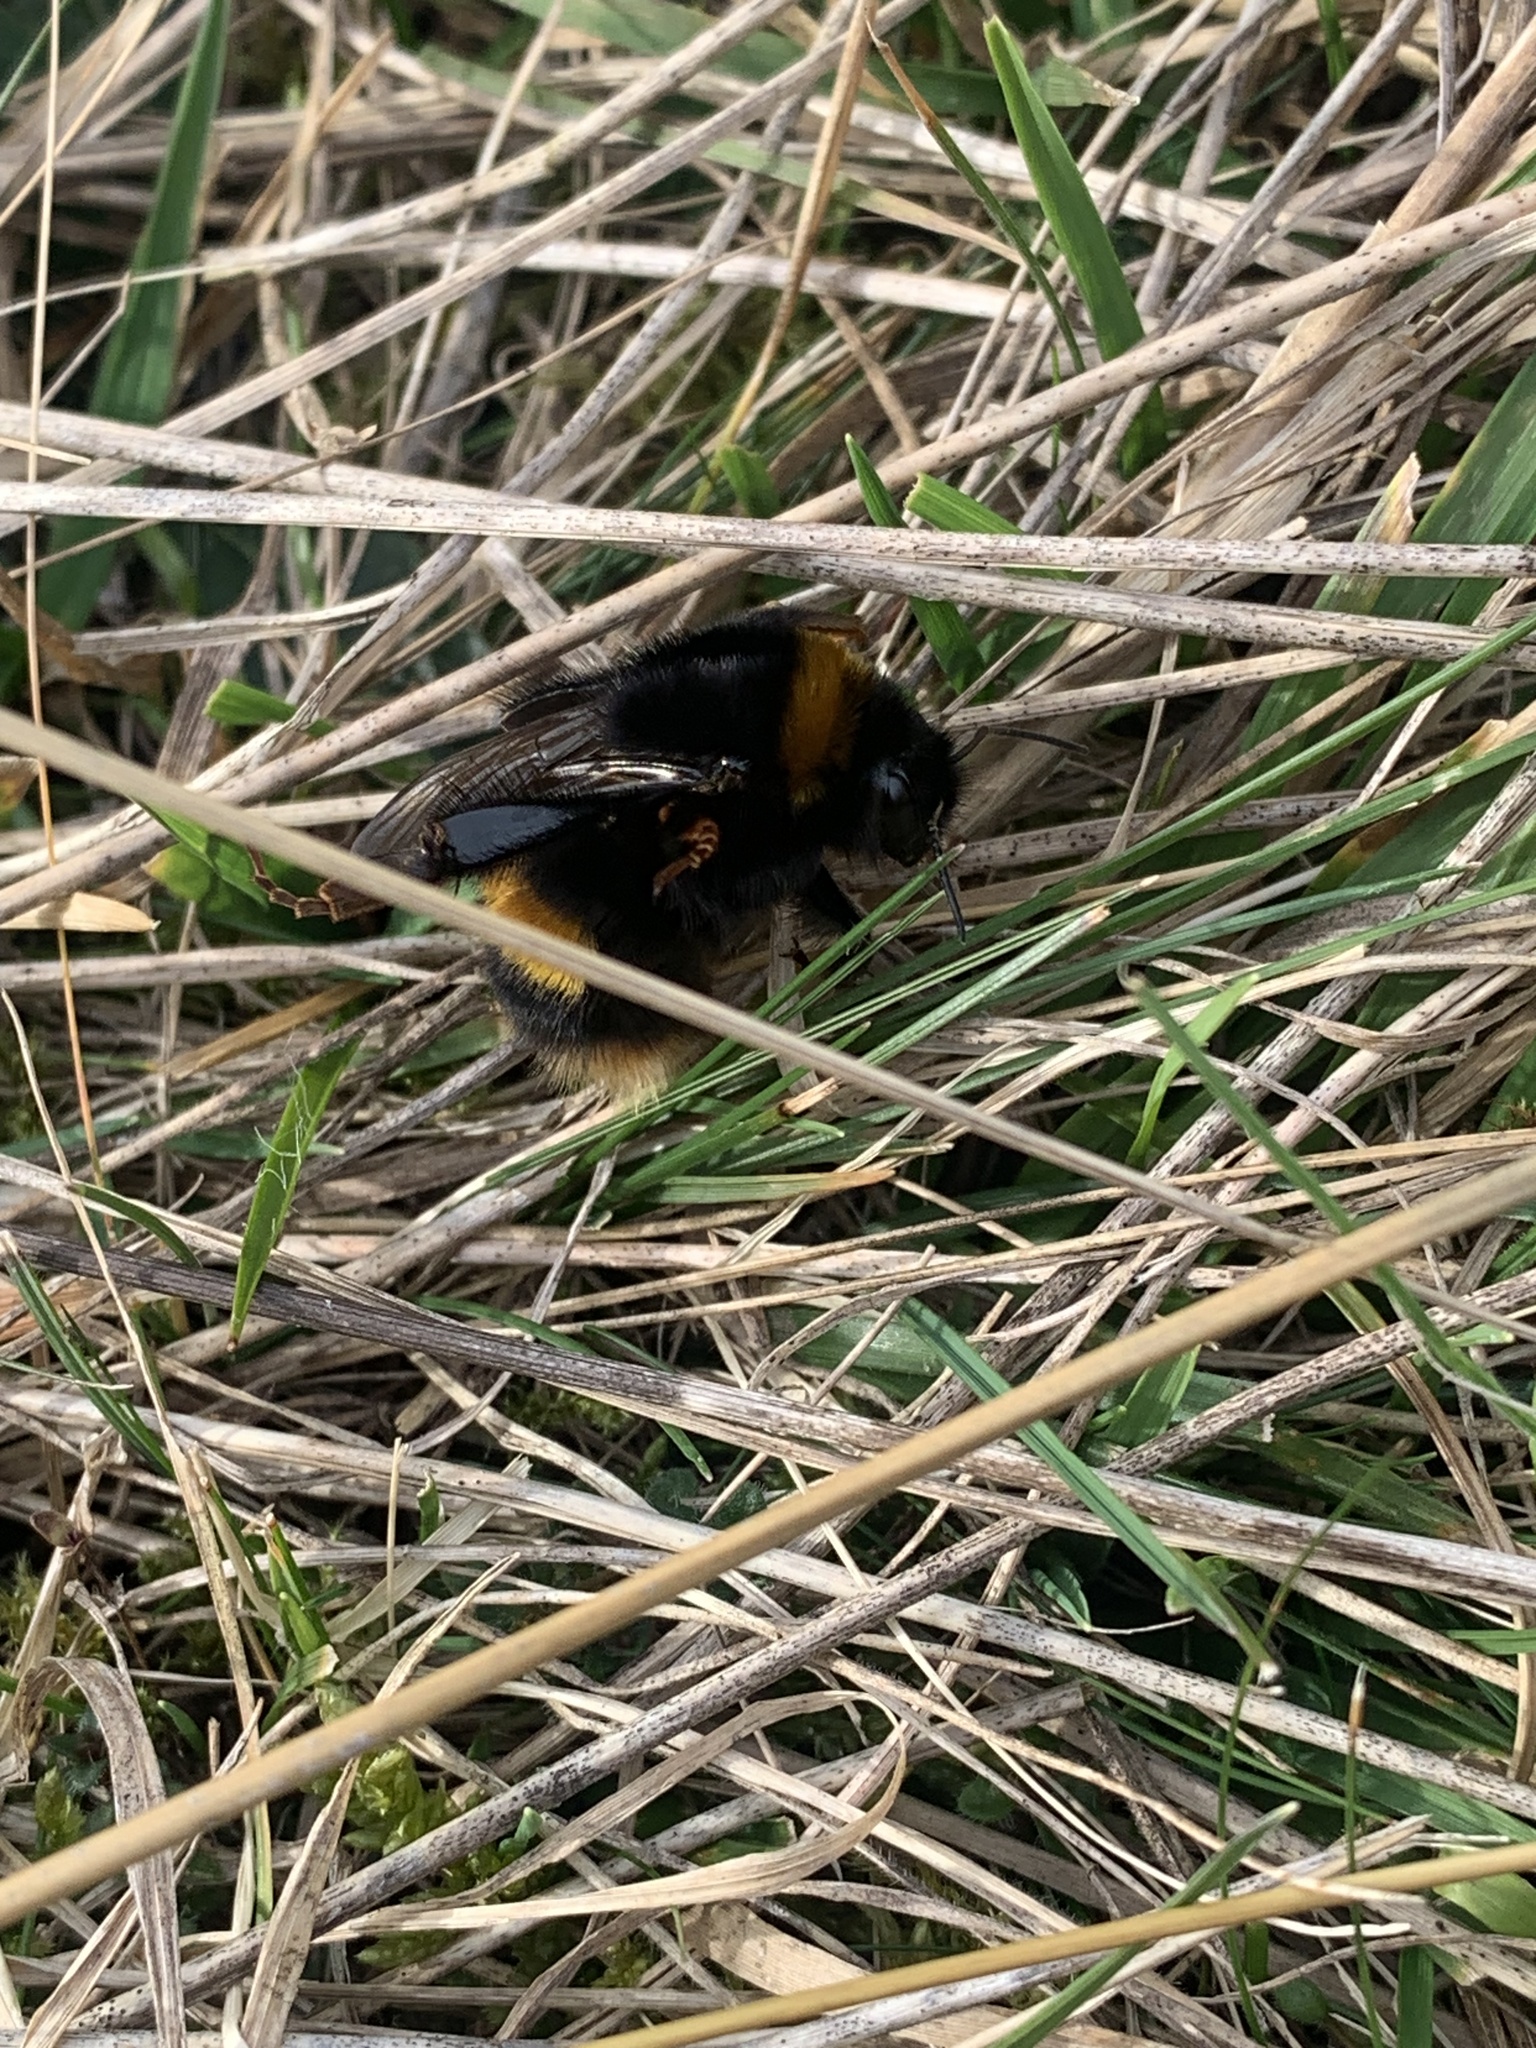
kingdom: Animalia
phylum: Arthropoda
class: Insecta
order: Hymenoptera
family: Apidae
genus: Bombus
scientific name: Bombus terrestris
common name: Buff-tailed bumblebee
